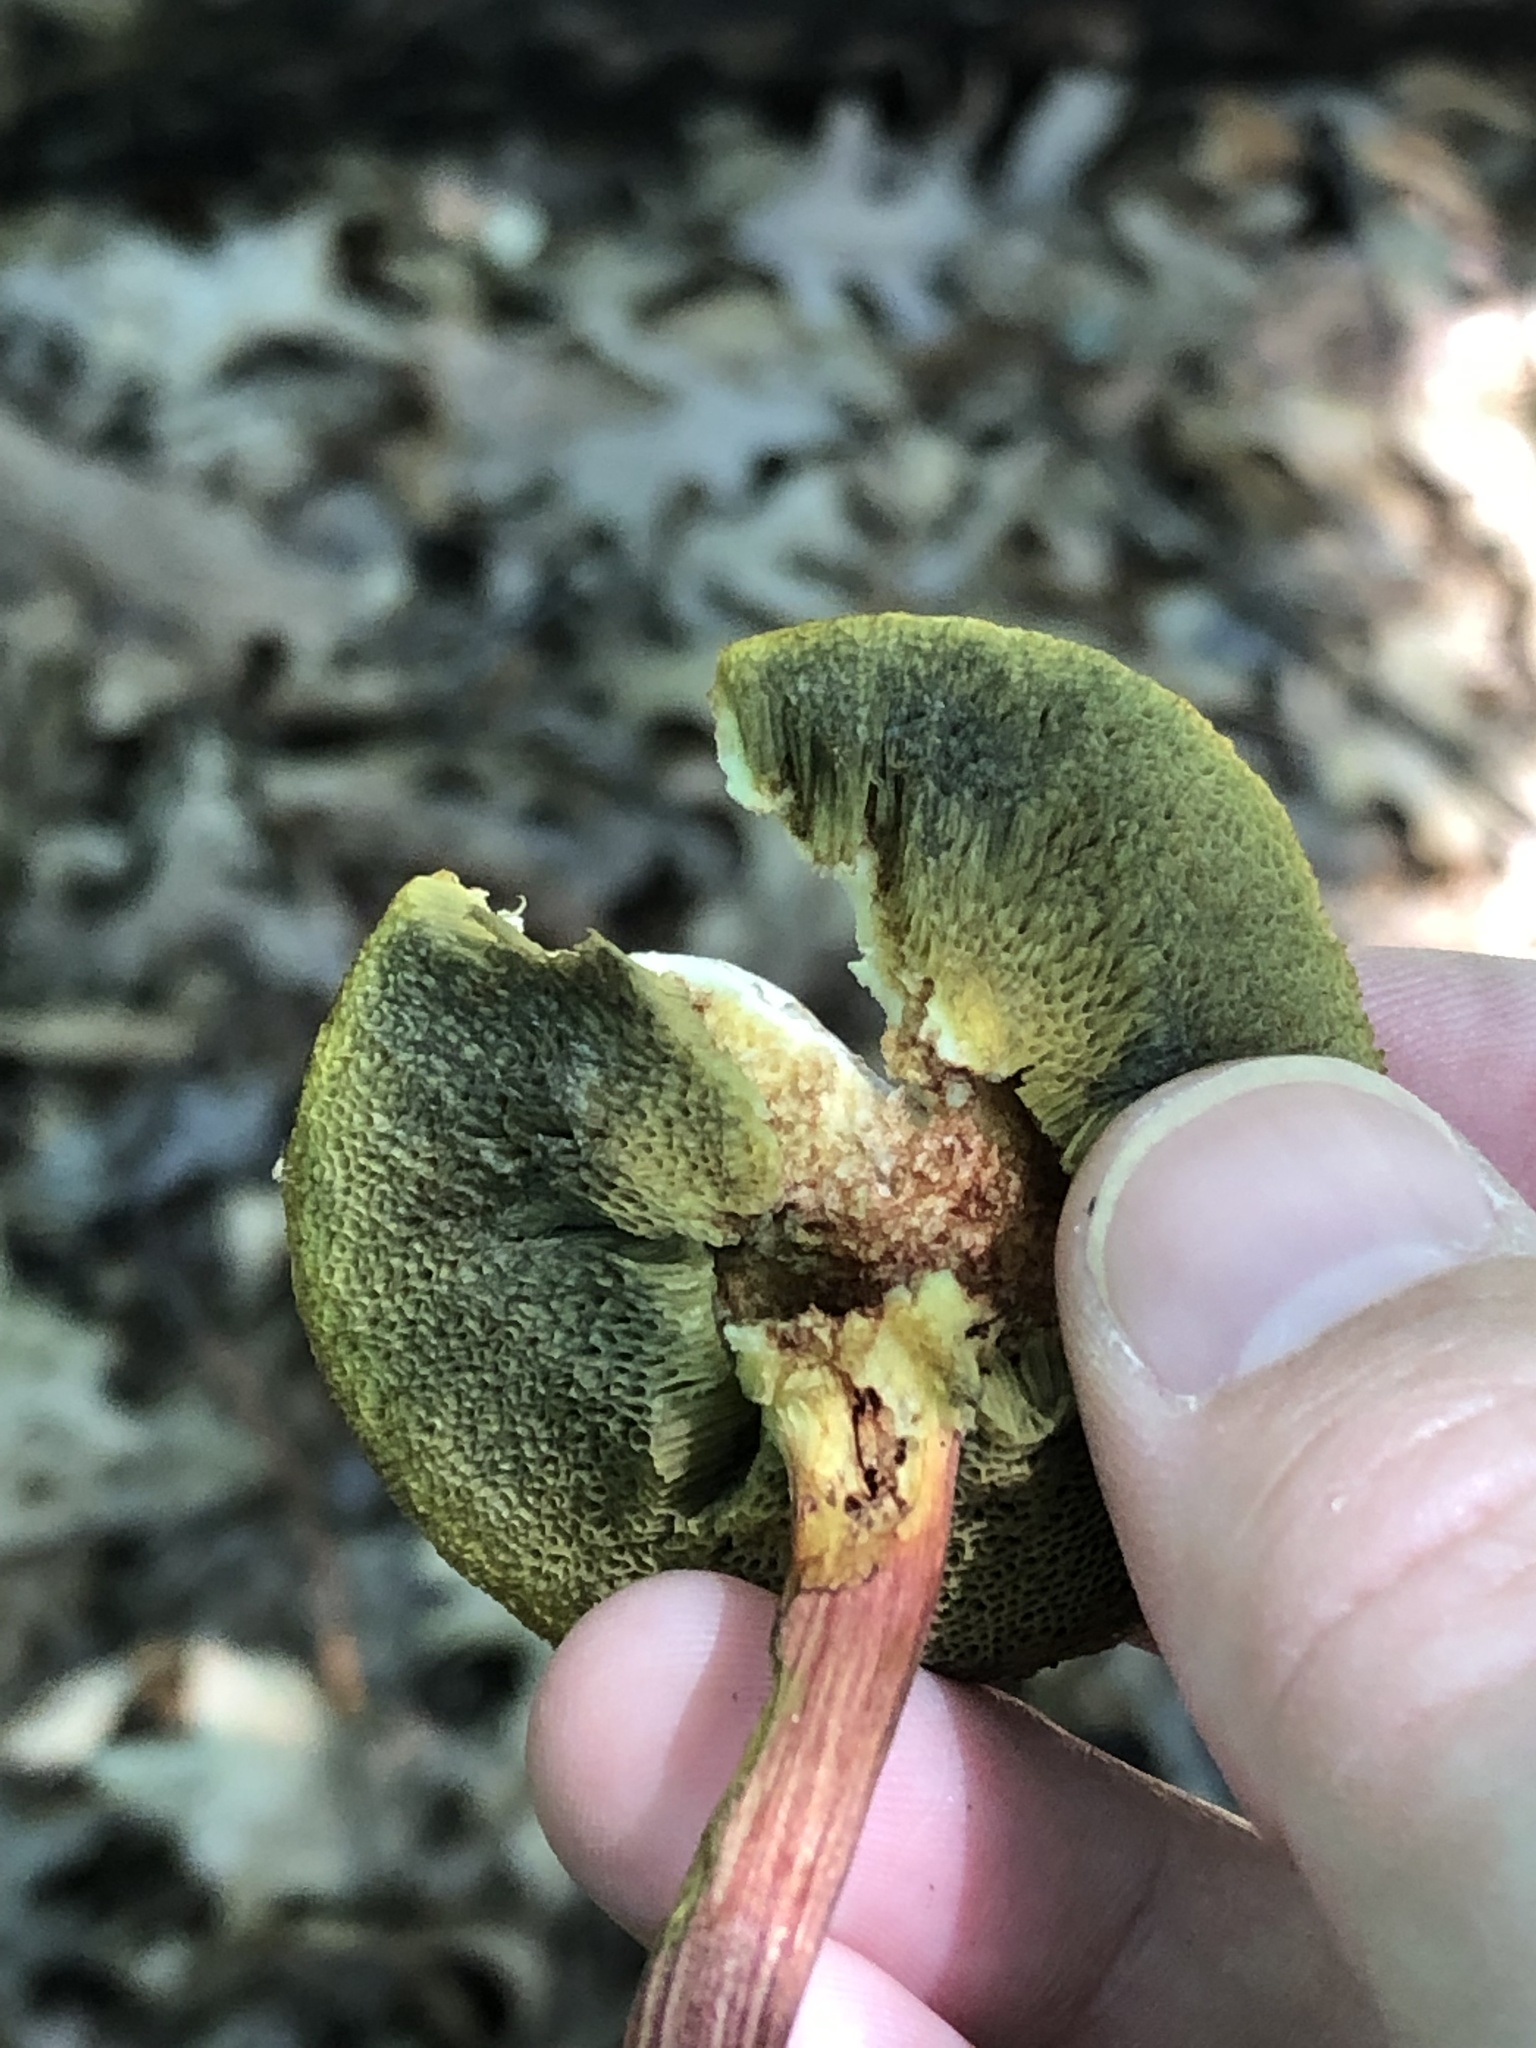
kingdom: Fungi
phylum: Basidiomycota
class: Agaricomycetes
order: Boletales
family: Boletaceae
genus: Xerocomellus
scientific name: Xerocomellus chrysenteron
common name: Red-cracking bolete
